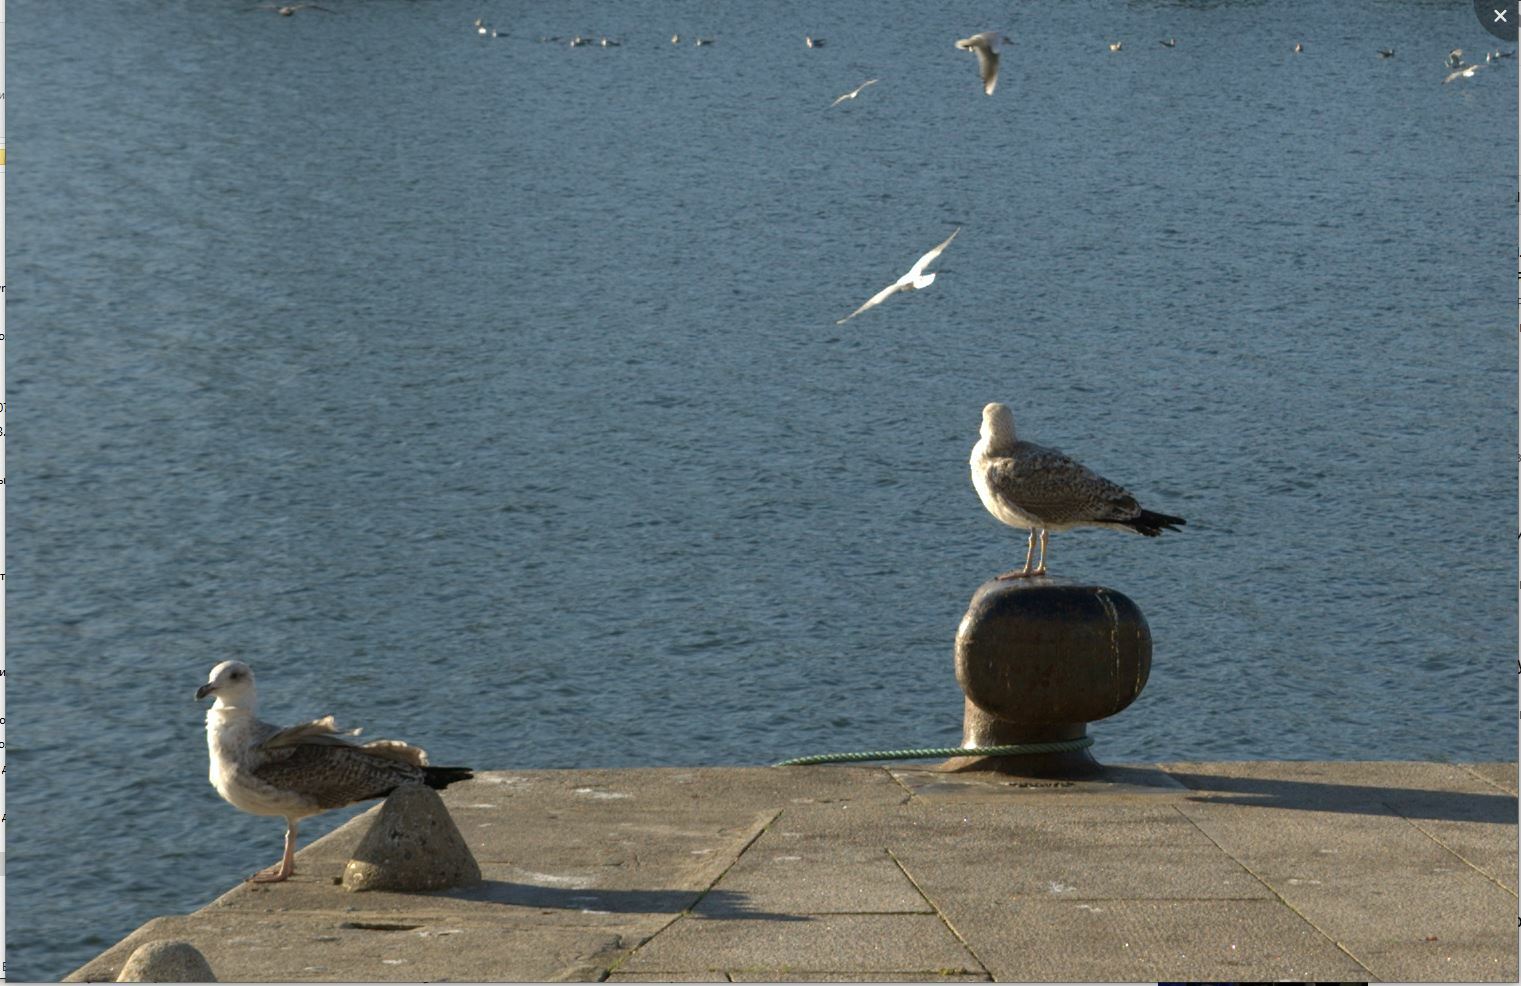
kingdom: Animalia
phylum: Chordata
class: Aves
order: Charadriiformes
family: Laridae
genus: Larus
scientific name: Larus michahellis
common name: Yellow-legged gull
